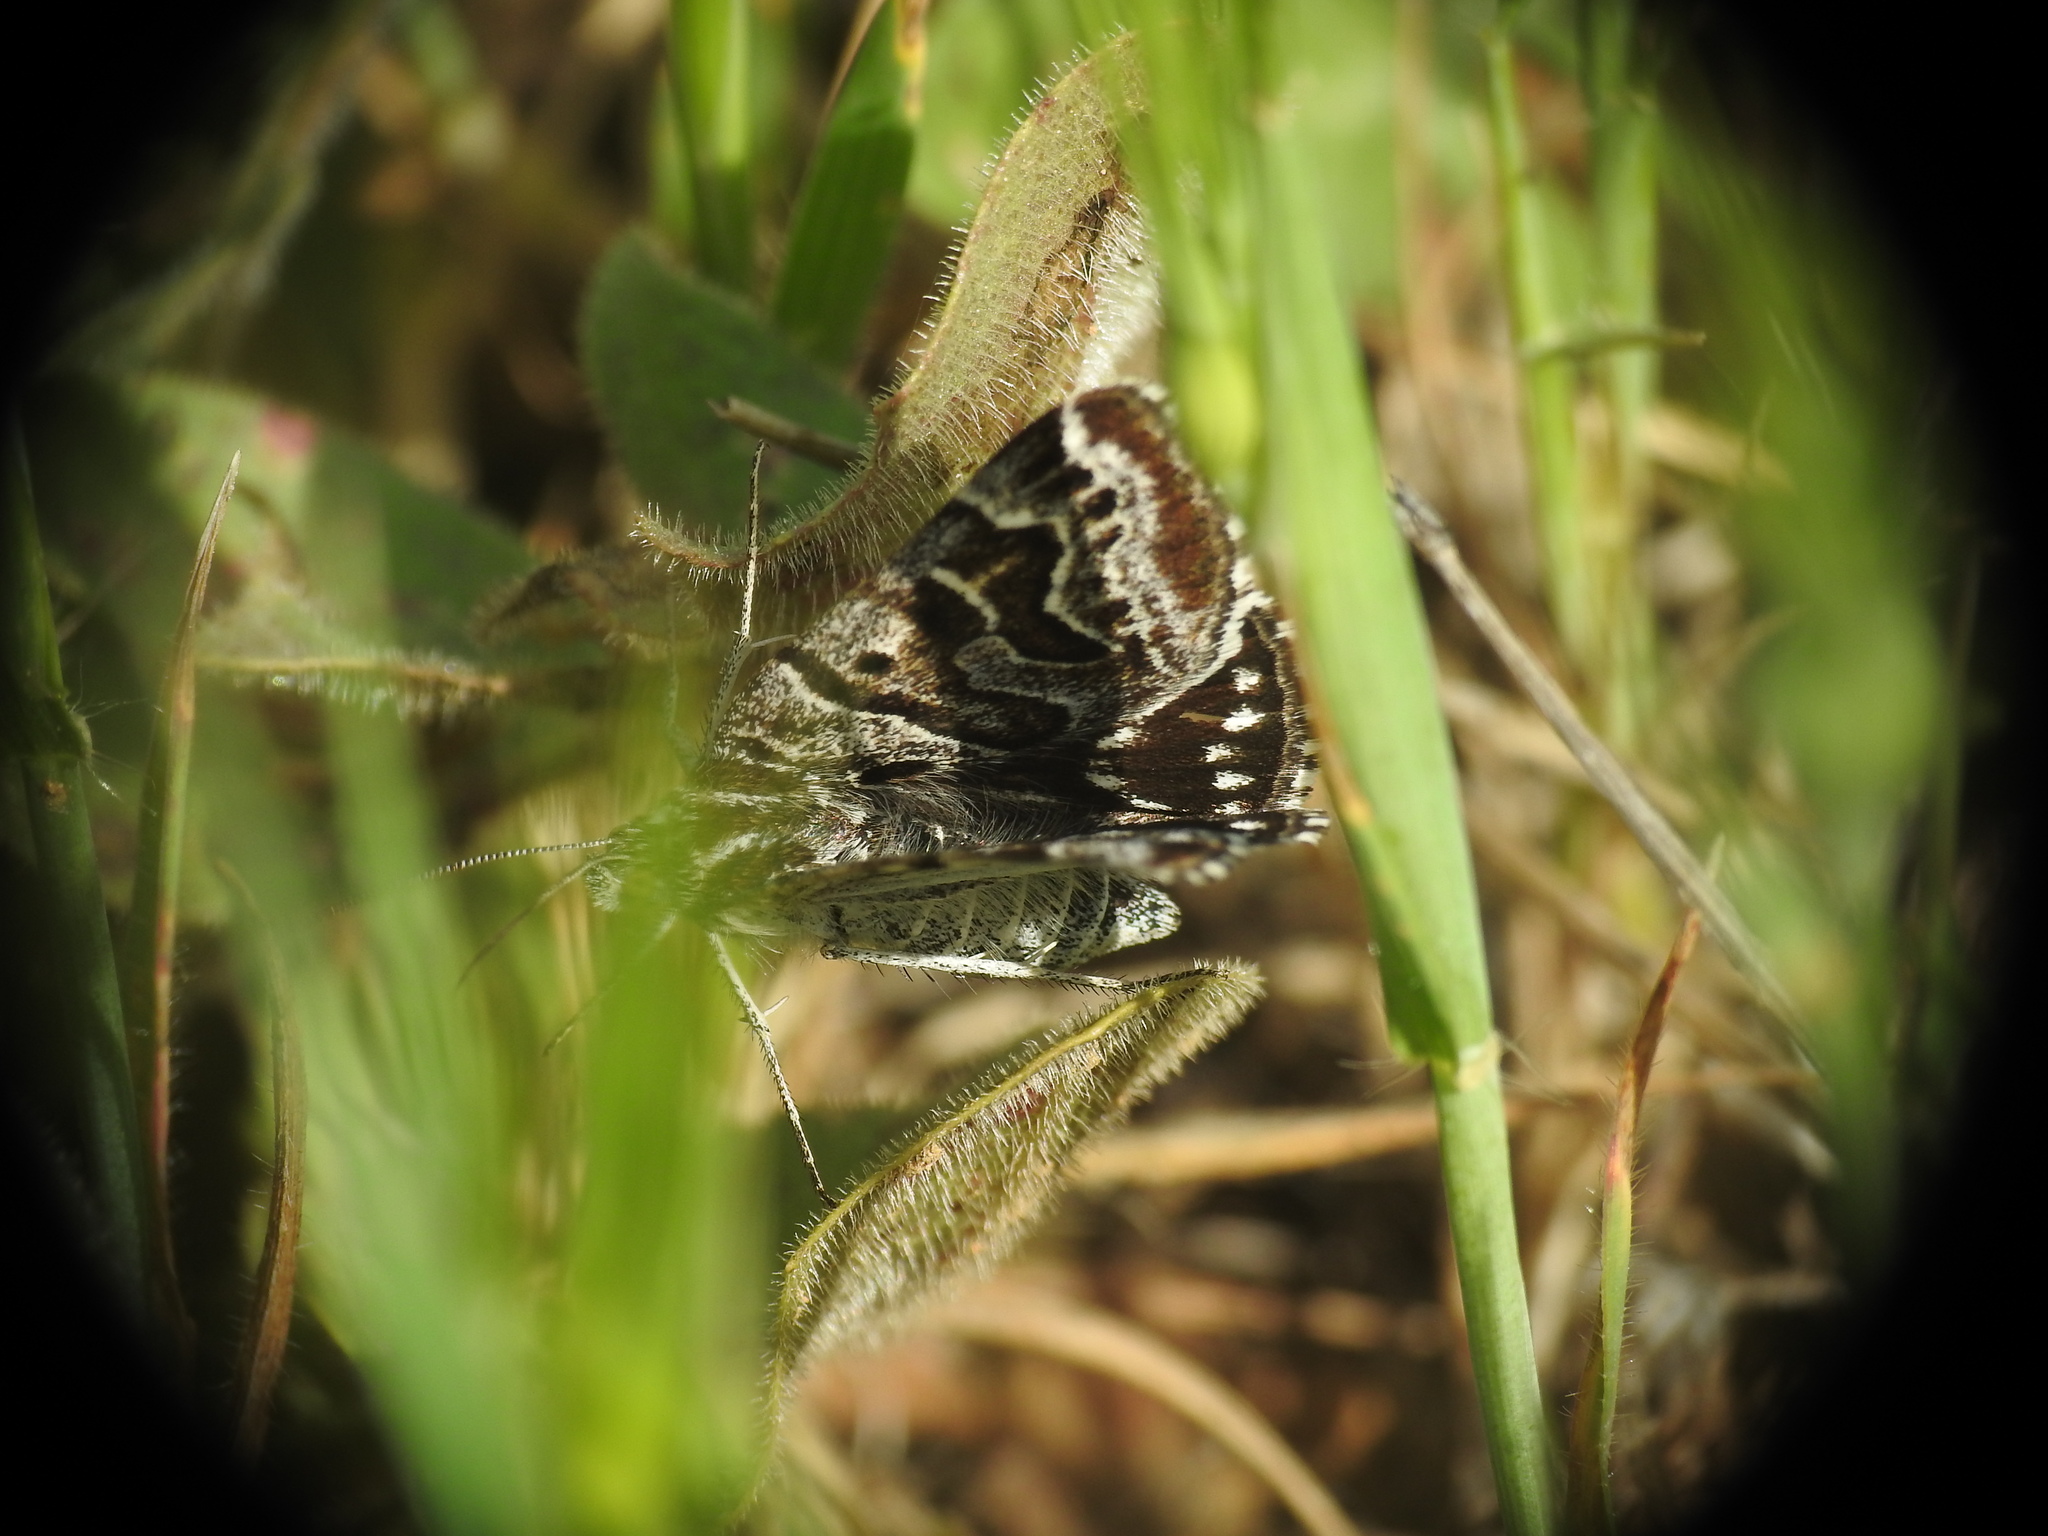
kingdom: Animalia
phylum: Arthropoda
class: Insecta
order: Lepidoptera
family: Erebidae
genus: Callistege
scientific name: Callistege mi
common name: Mother shipton
